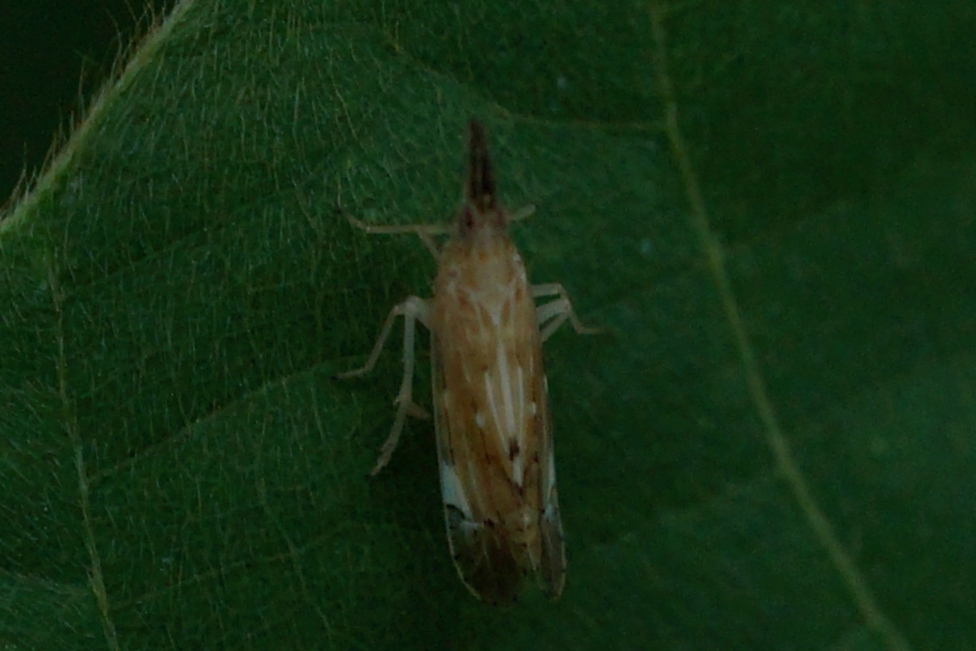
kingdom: Animalia
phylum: Arthropoda
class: Insecta
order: Hemiptera
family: Delphacidae
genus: Terauchiana
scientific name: Terauchiana singularis
